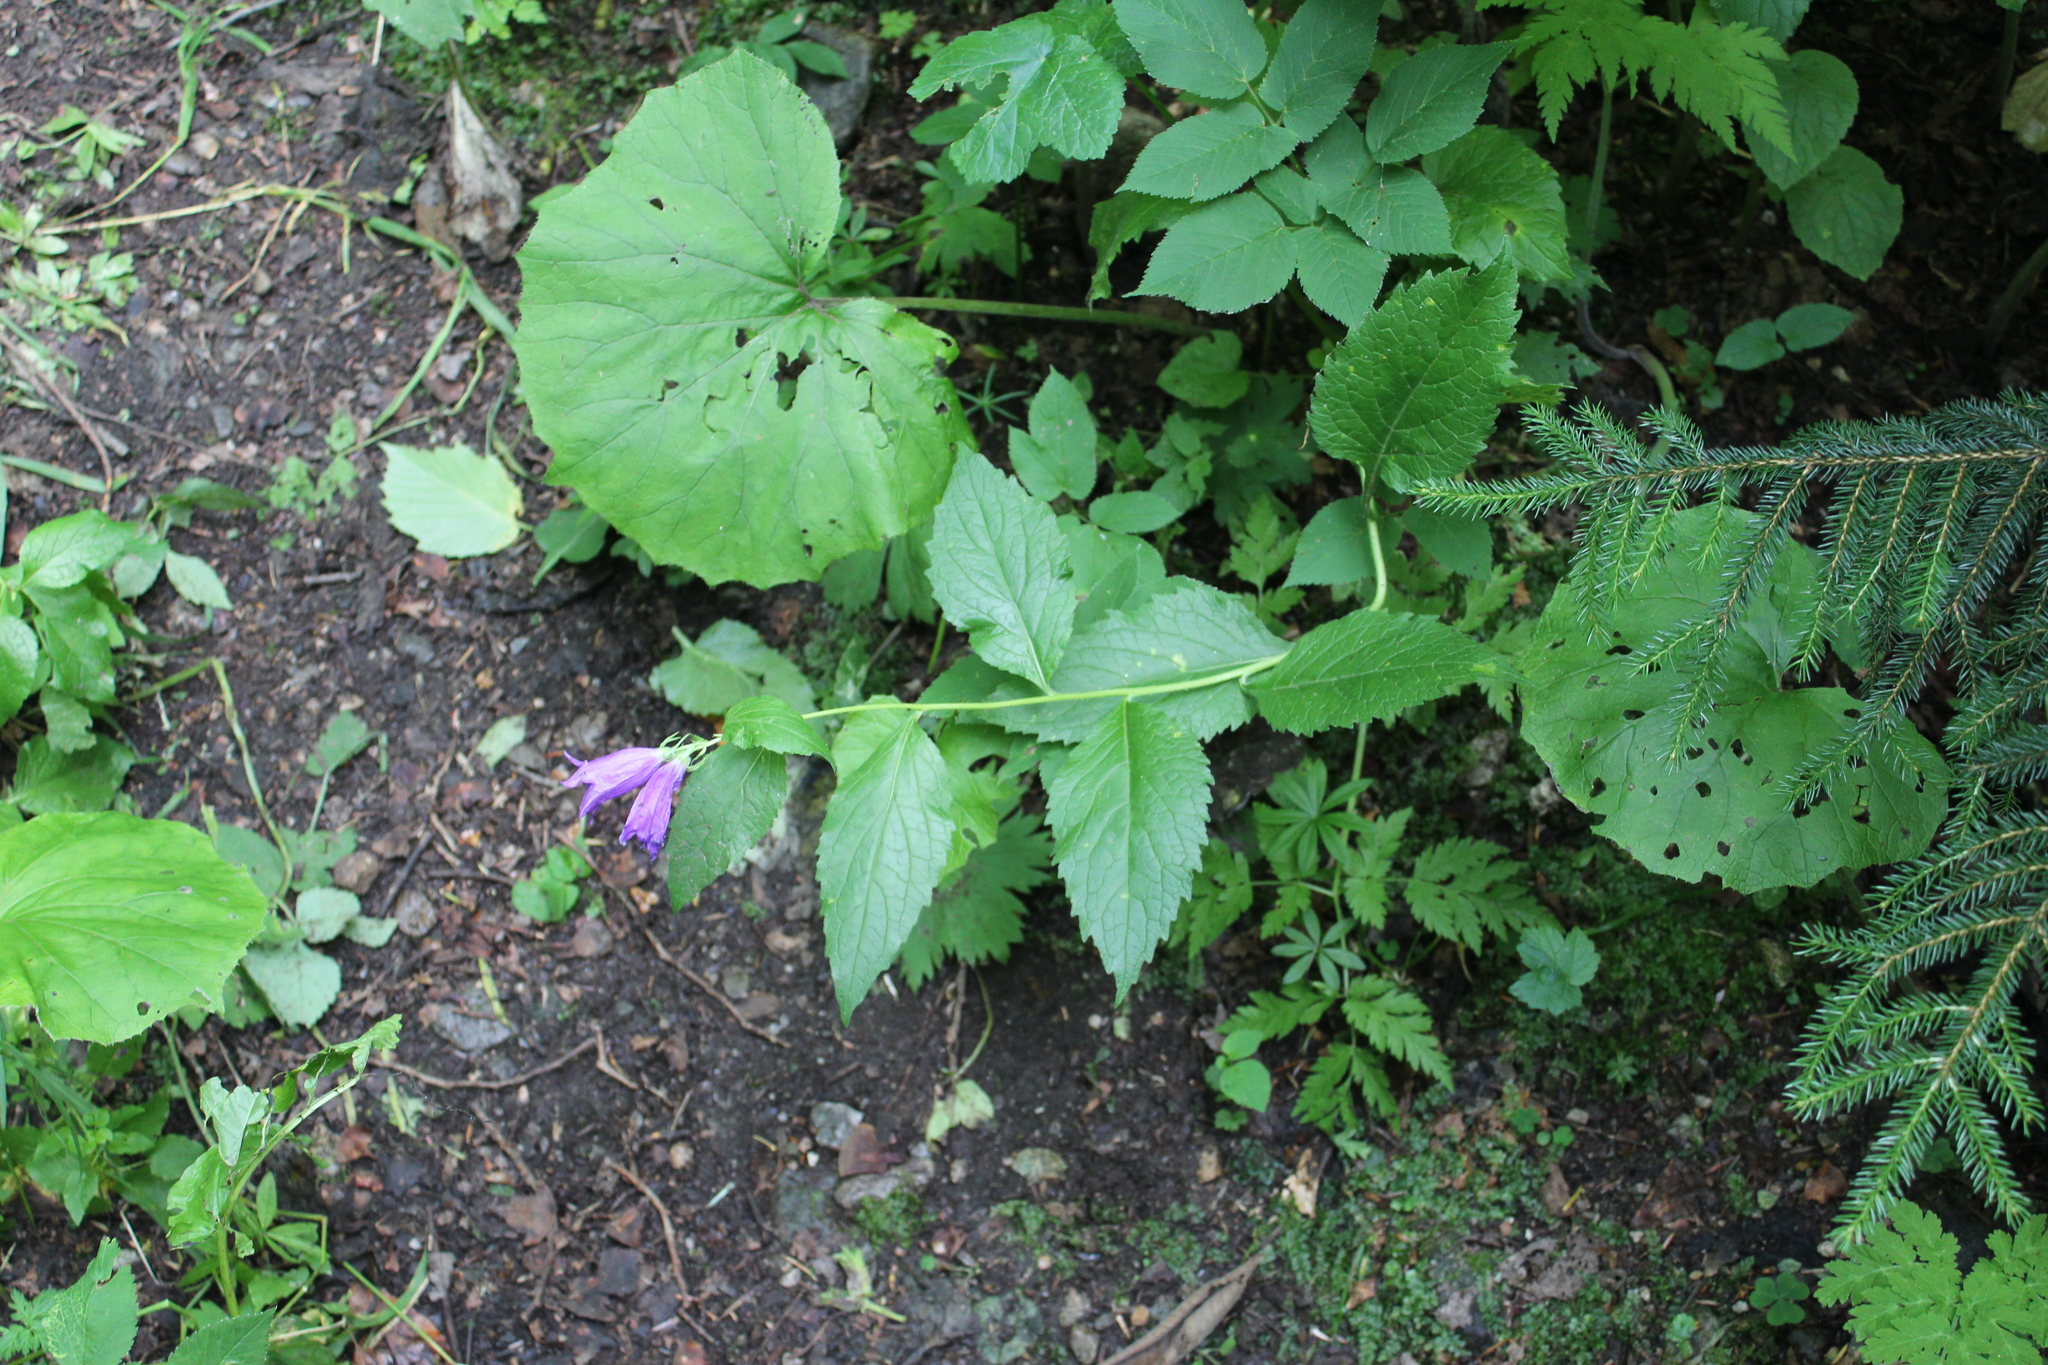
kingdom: Plantae
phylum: Tracheophyta
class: Magnoliopsida
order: Asterales
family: Campanulaceae
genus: Campanula
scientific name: Campanula latifolia
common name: Giant bellflower
